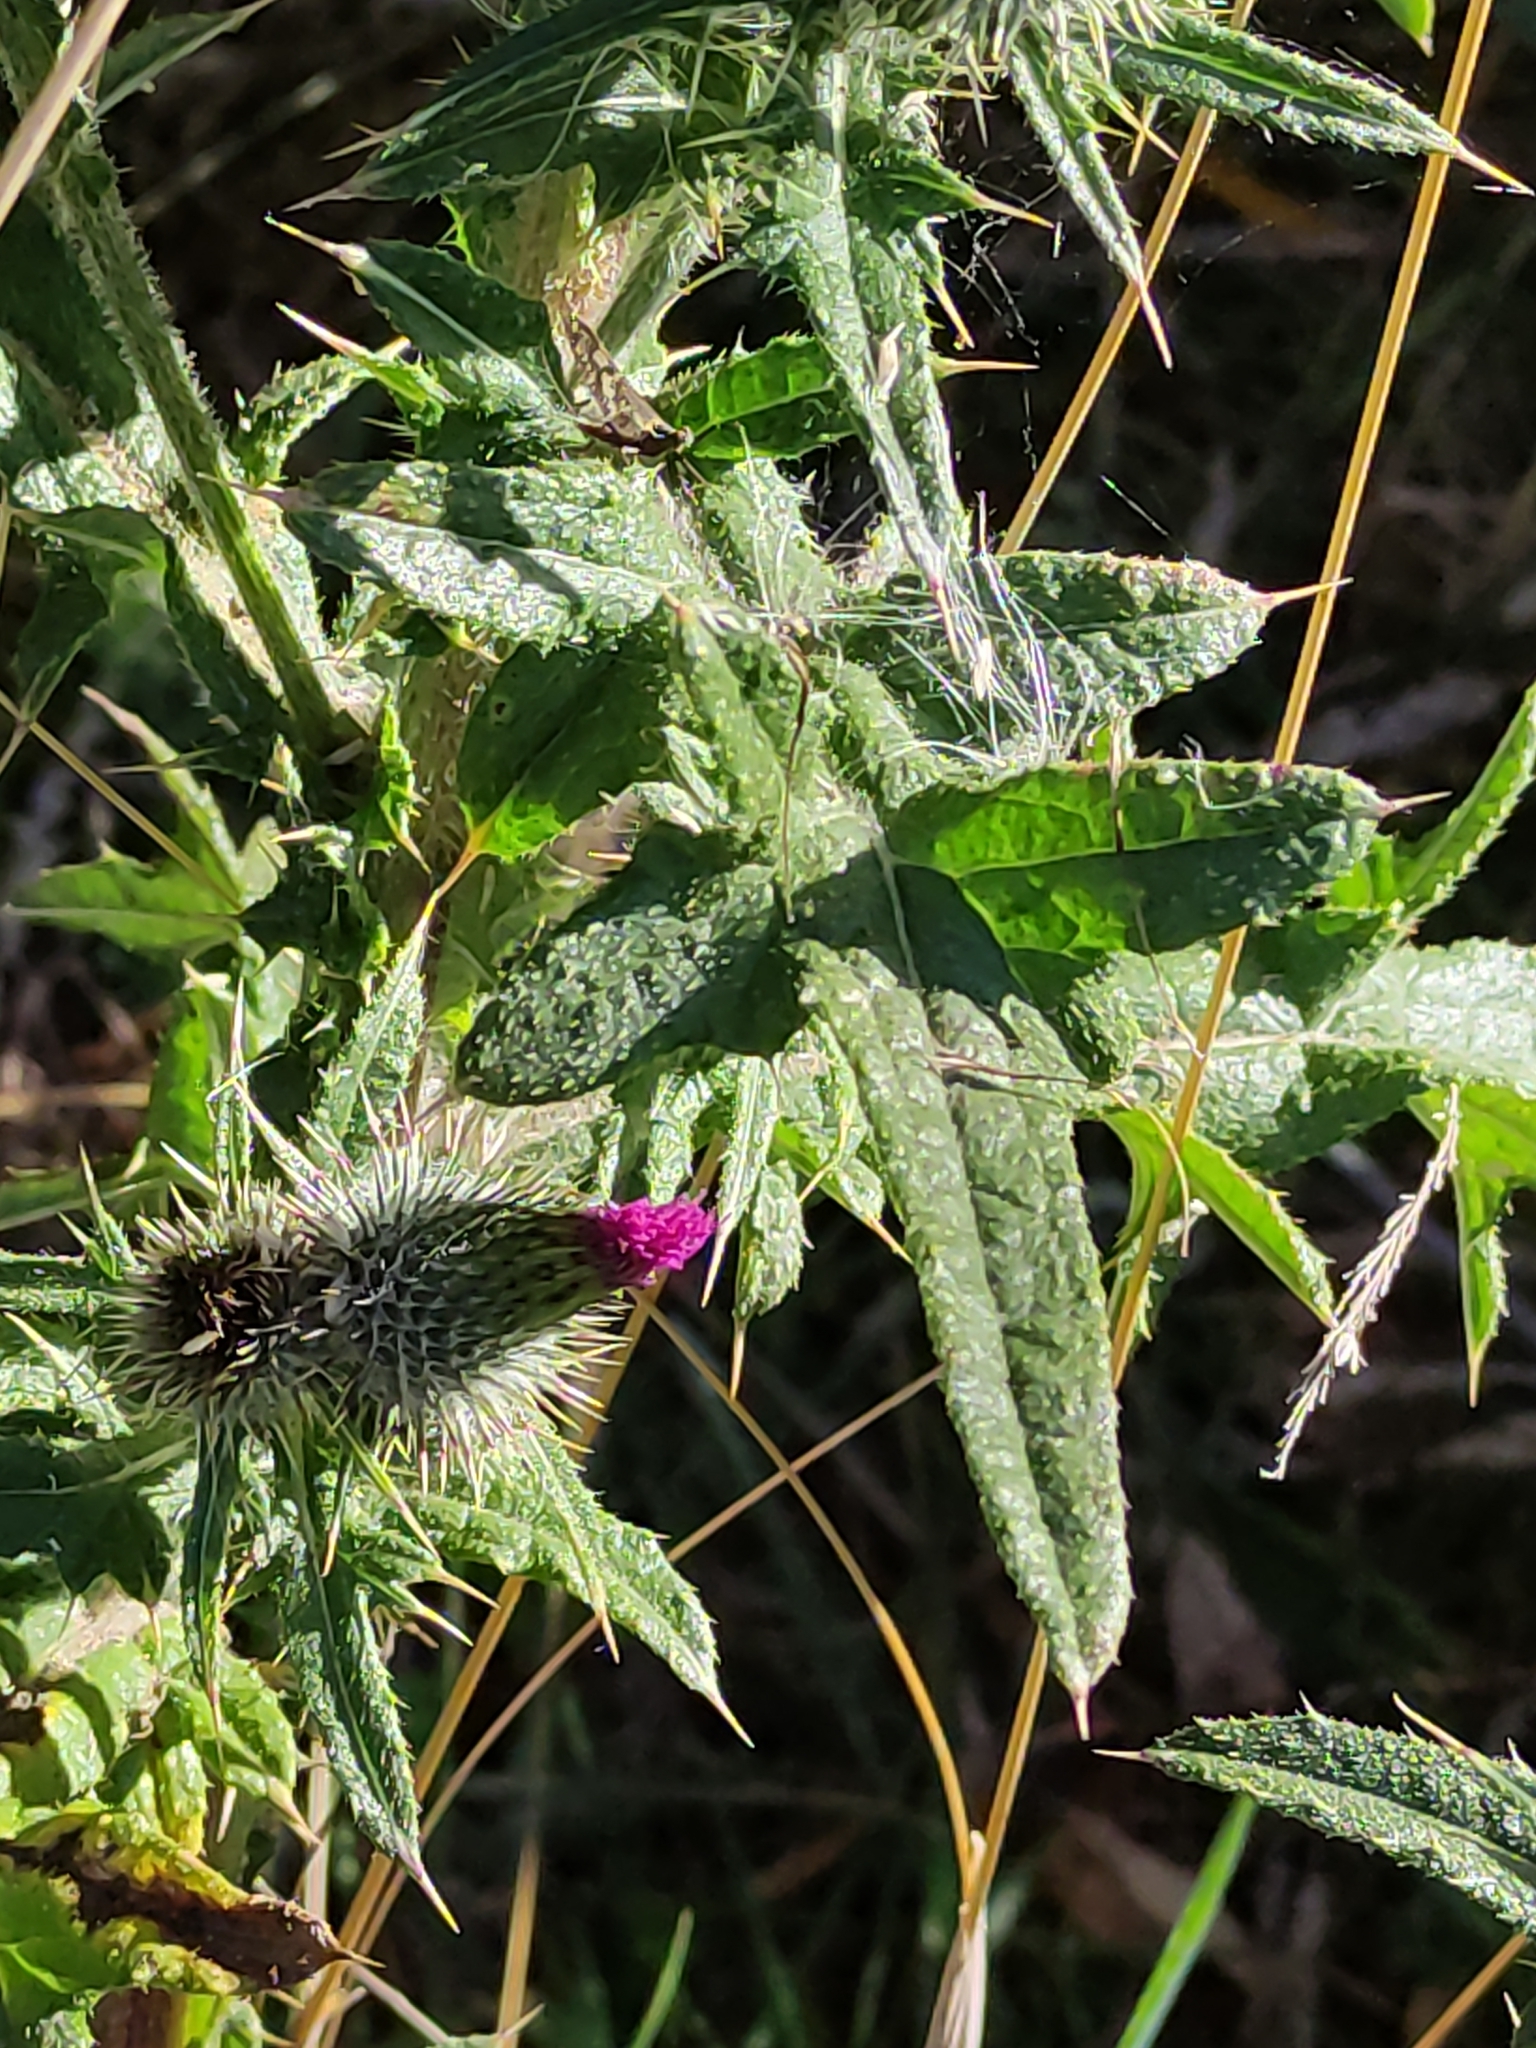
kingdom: Plantae
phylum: Tracheophyta
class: Magnoliopsida
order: Asterales
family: Asteraceae
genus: Cirsium
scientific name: Cirsium vulgare
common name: Bull thistle
